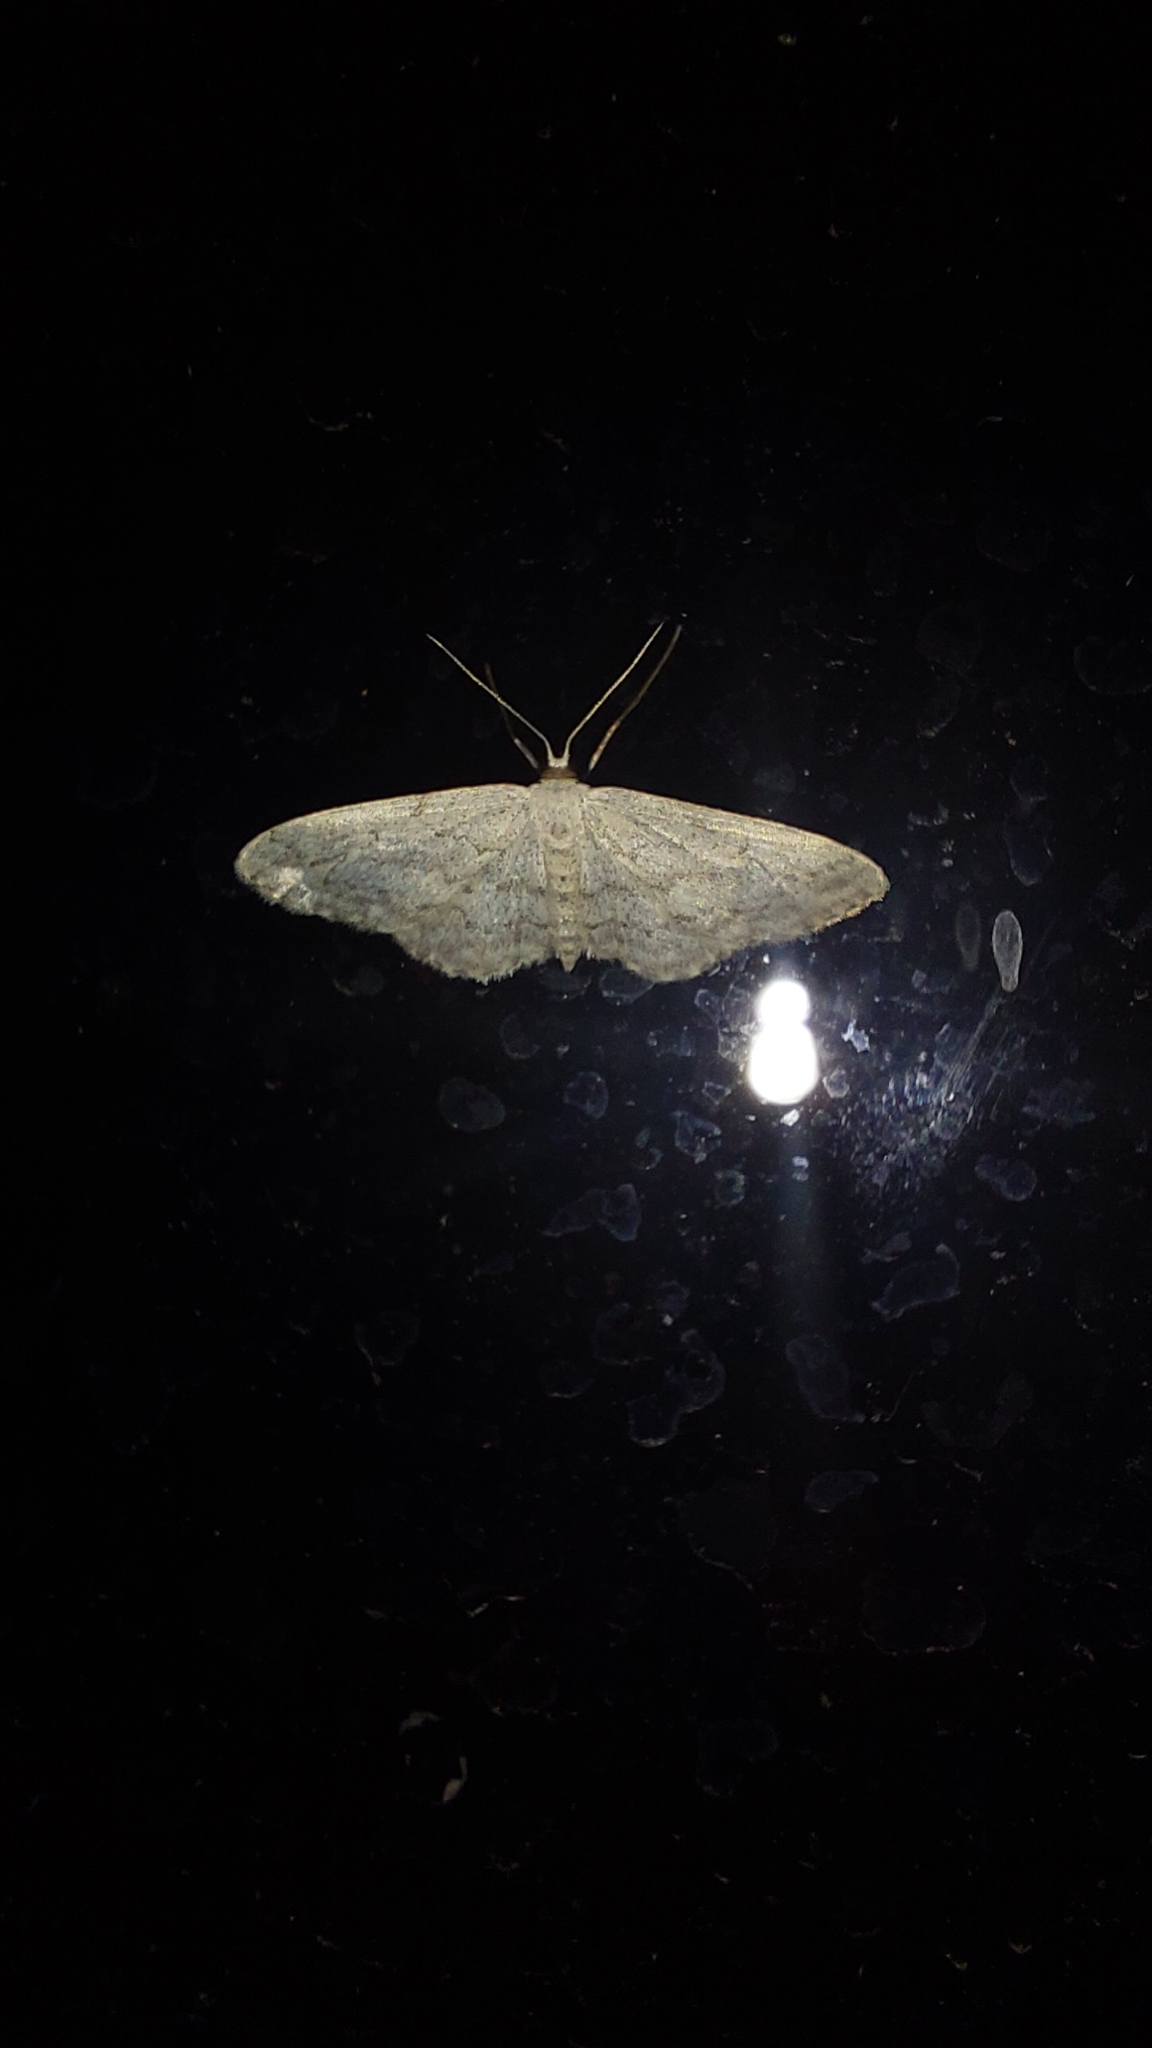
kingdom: Animalia
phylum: Arthropoda
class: Insecta
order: Lepidoptera
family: Geometridae
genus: Idaea
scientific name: Idaea seriata
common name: Small dusty wave
